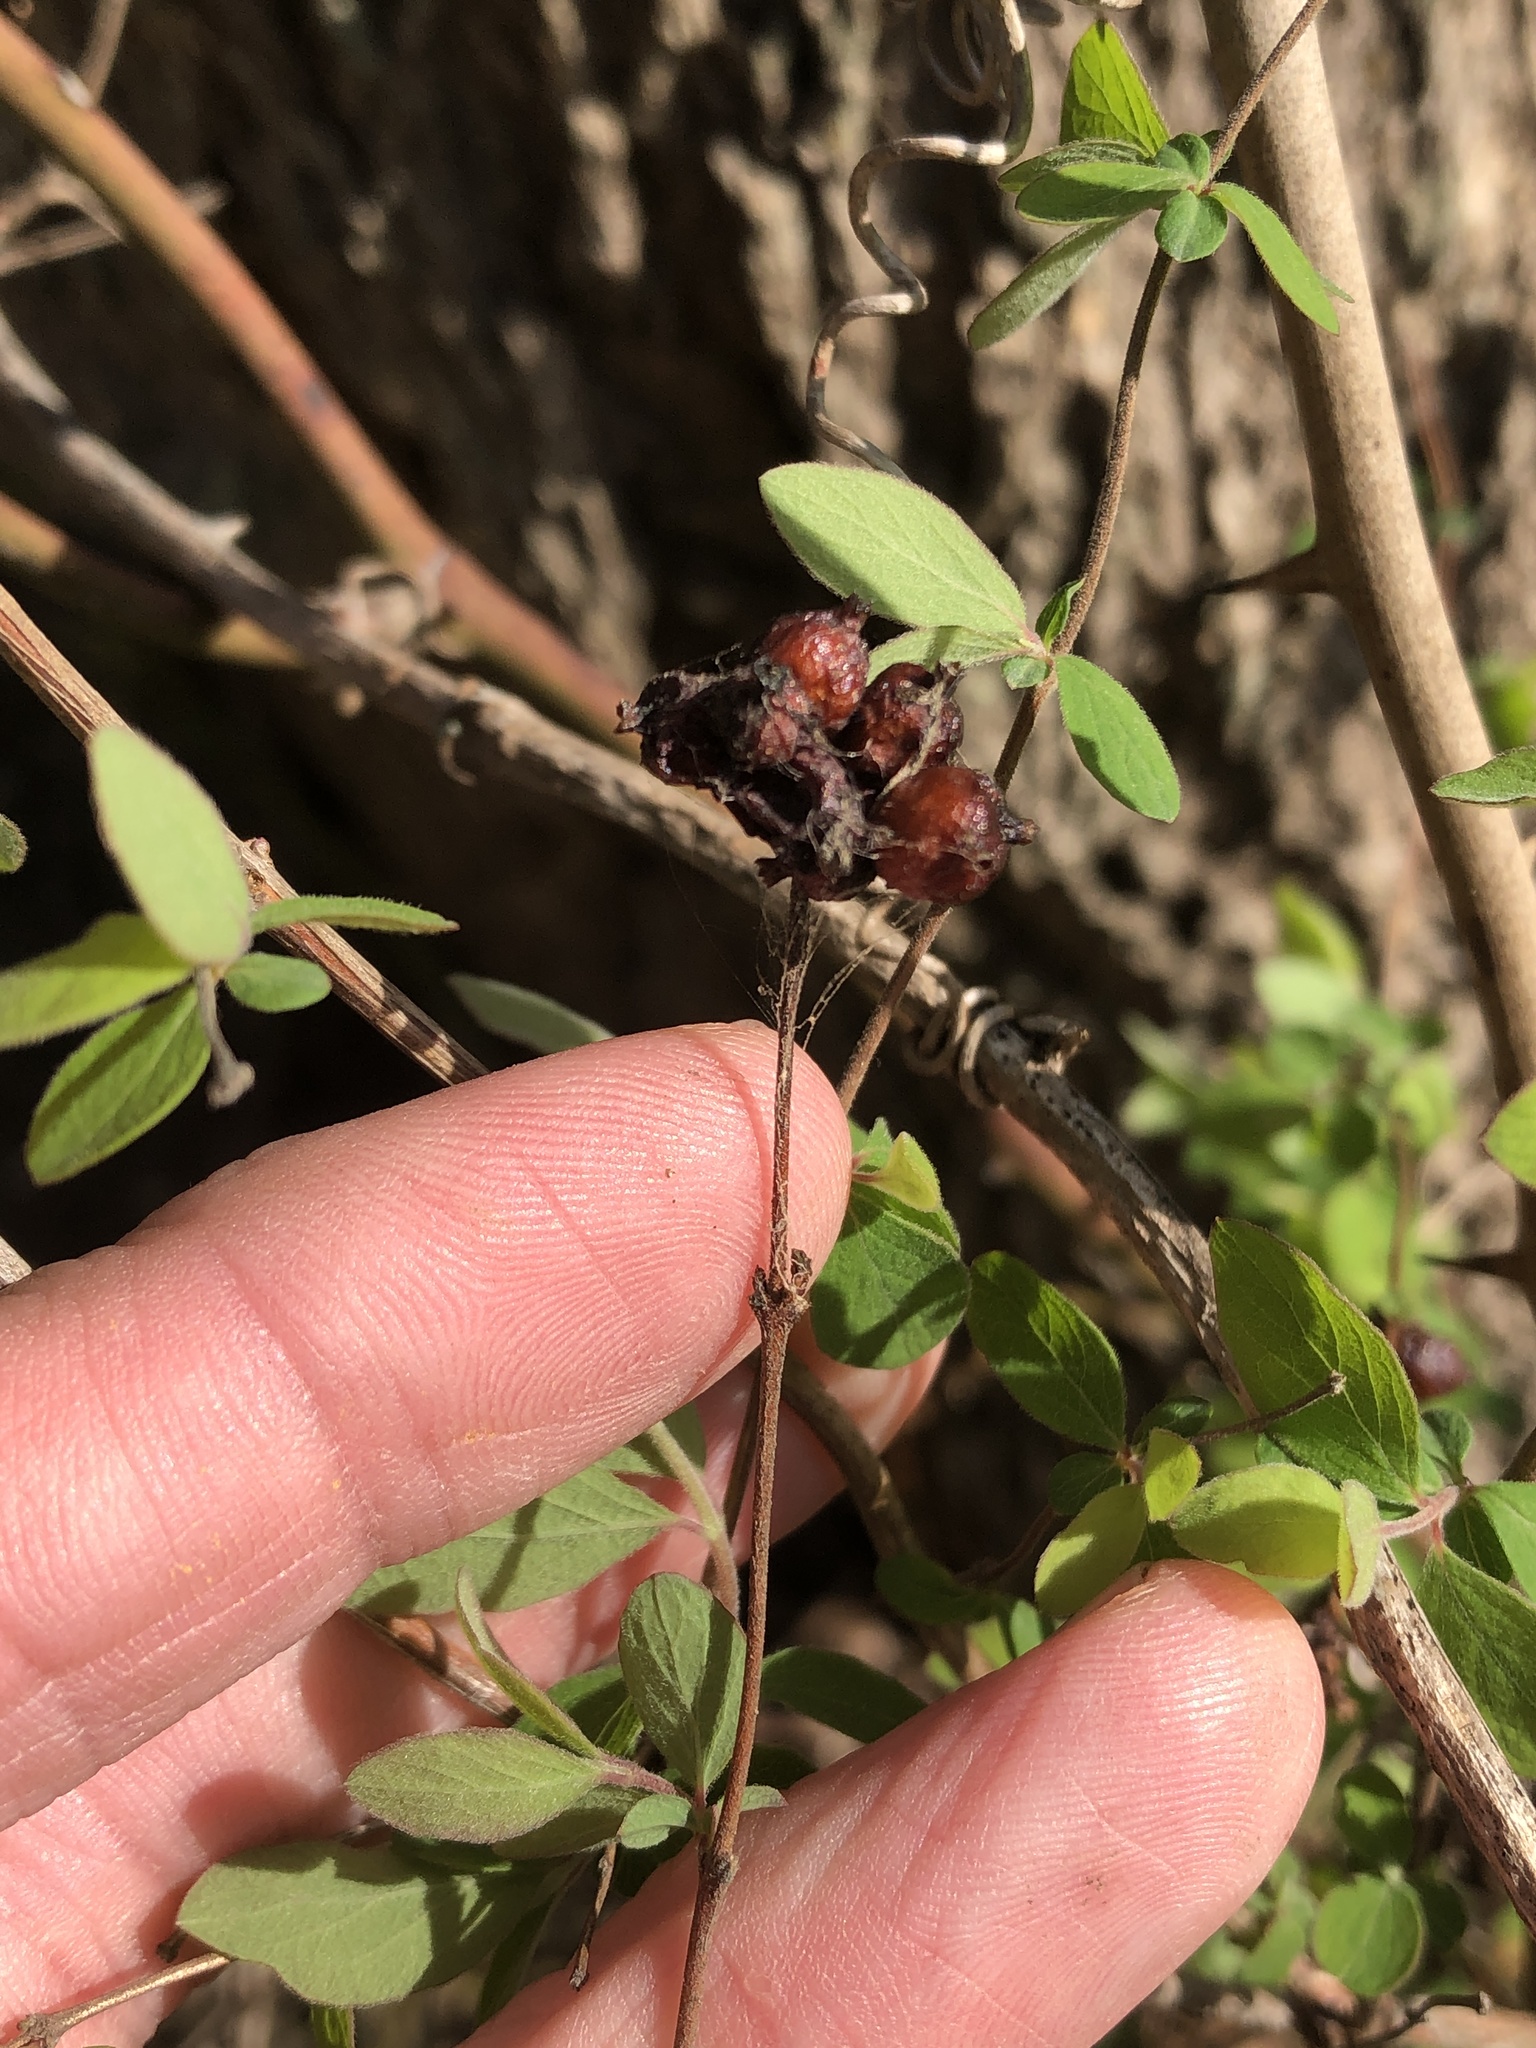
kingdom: Plantae
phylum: Tracheophyta
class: Magnoliopsida
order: Dipsacales
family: Caprifoliaceae
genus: Symphoricarpos
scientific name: Symphoricarpos orbiculatus
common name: Coralberry
